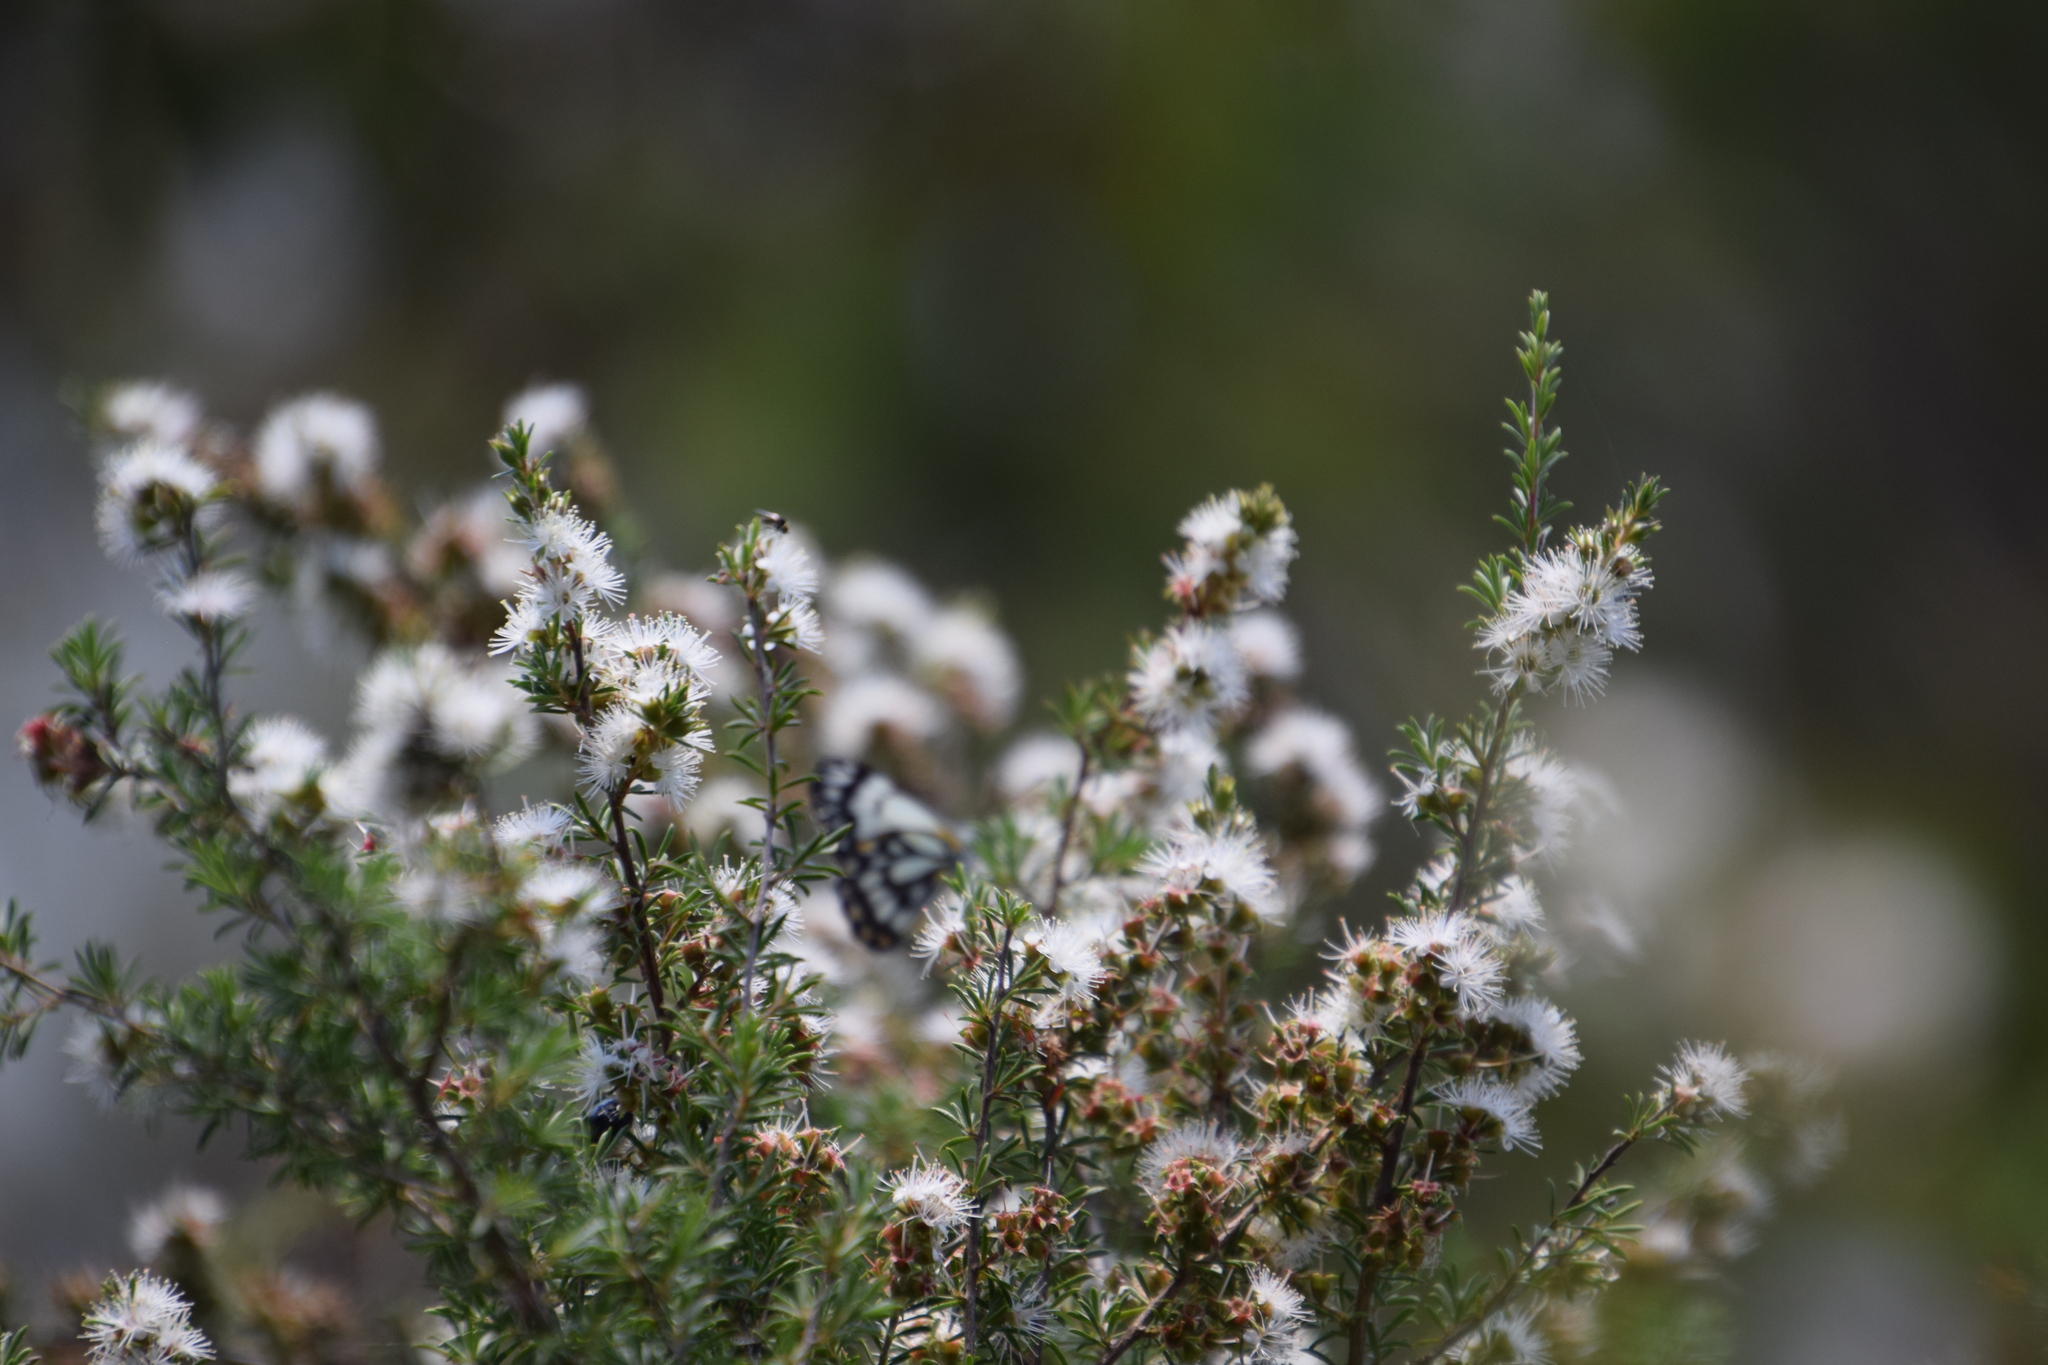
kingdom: Animalia
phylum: Arthropoda
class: Insecta
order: Lepidoptera
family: Pieridae
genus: Belenois
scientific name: Belenois java
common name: Caper white
